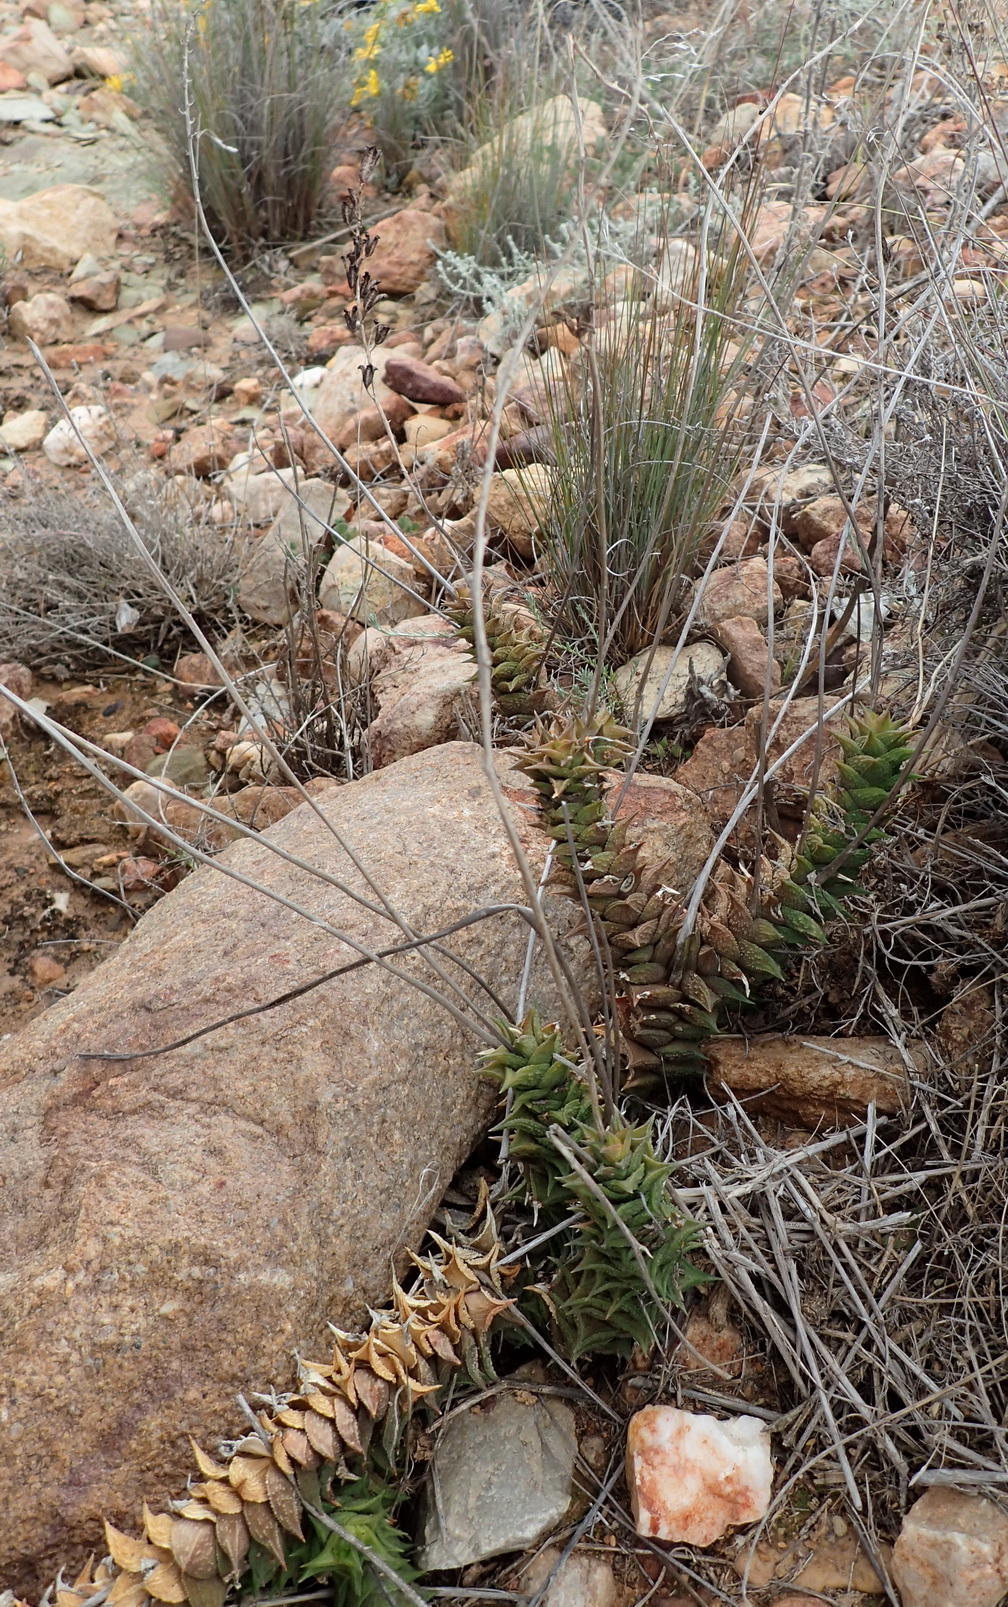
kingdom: Plantae
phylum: Tracheophyta
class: Liliopsida
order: Asparagales
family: Asphodelaceae
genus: Astroloba
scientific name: Astroloba corrugata
